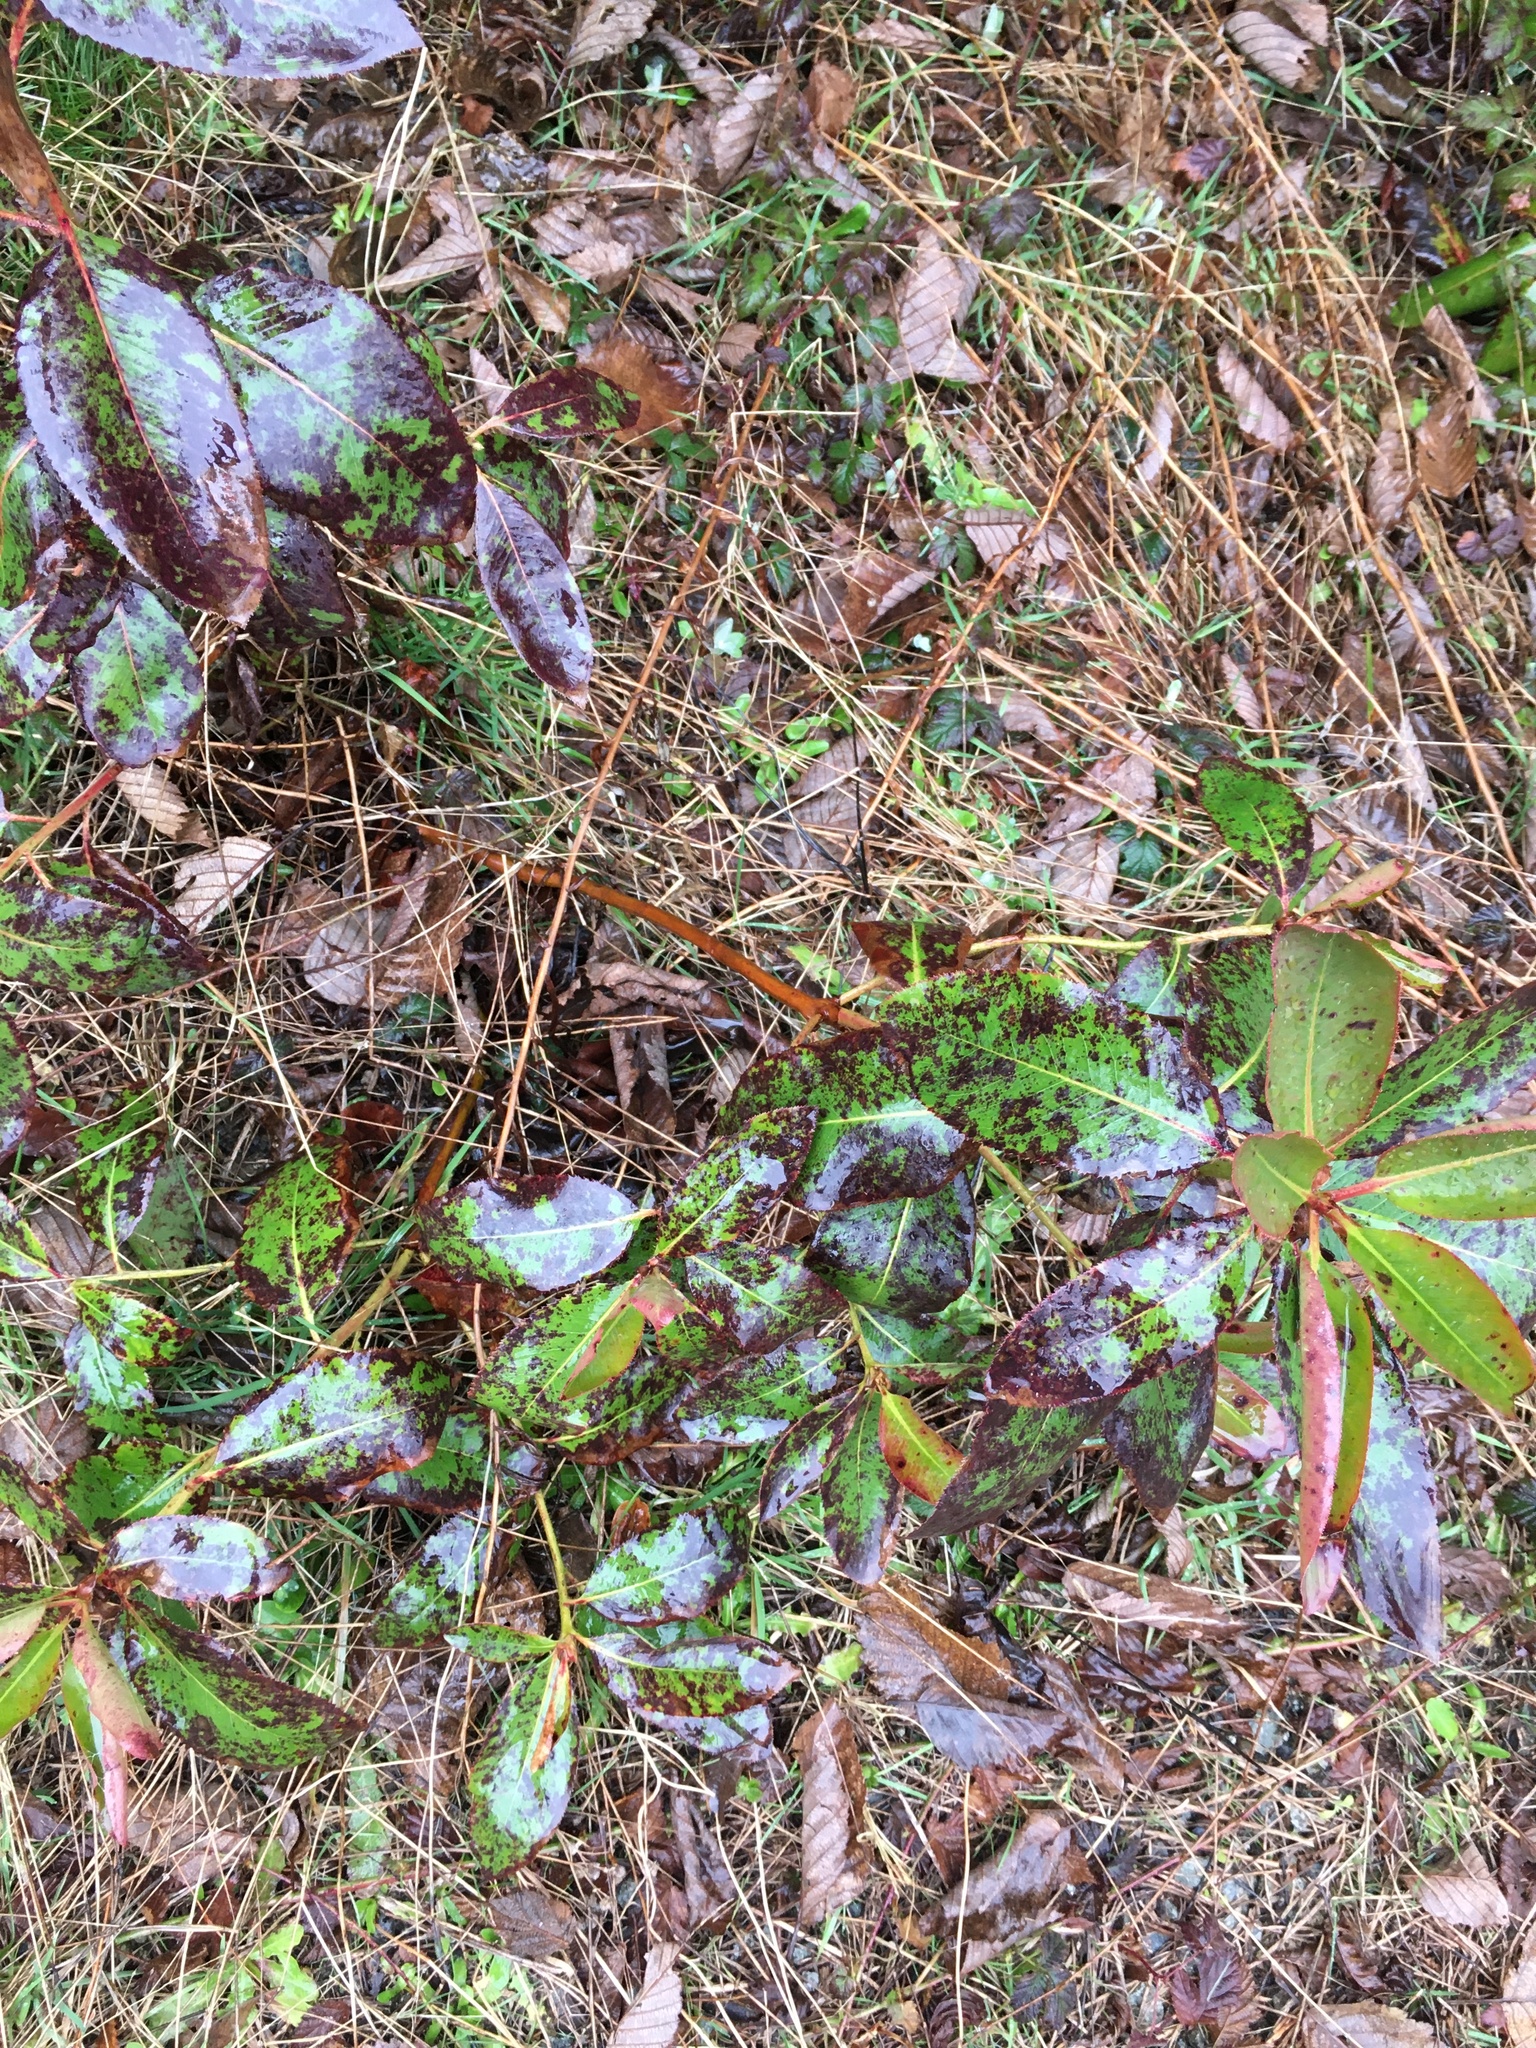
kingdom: Plantae
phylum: Tracheophyta
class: Magnoliopsida
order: Ericales
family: Ericaceae
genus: Arbutus
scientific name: Arbutus menziesii
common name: Pacific madrone
